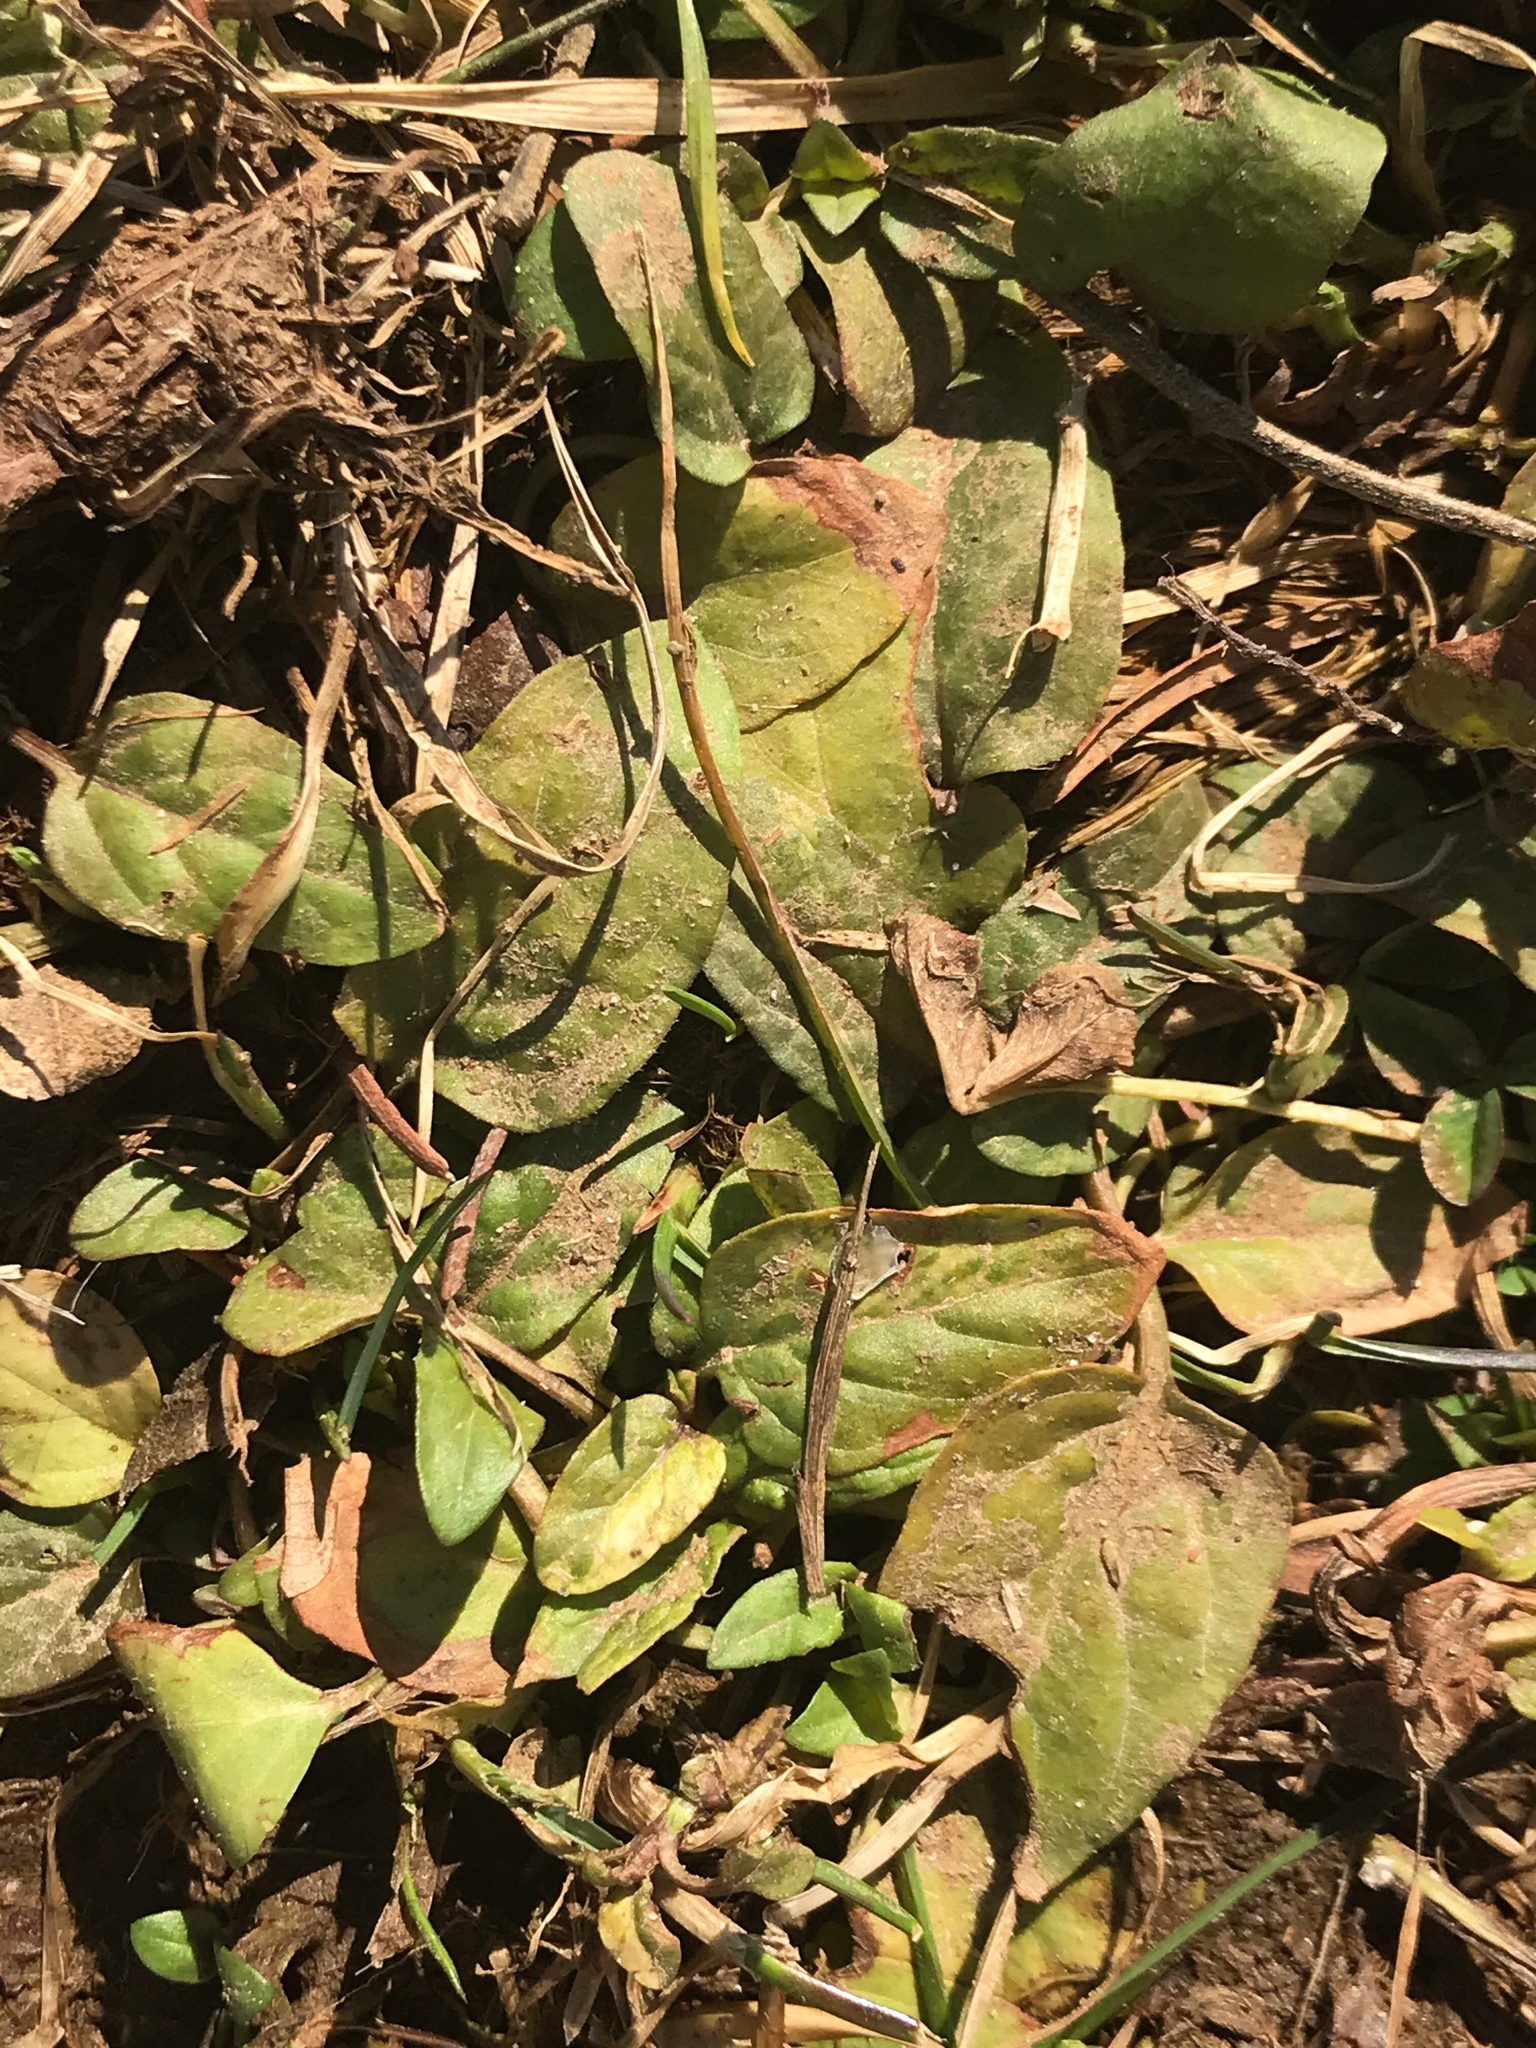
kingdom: Plantae
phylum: Tracheophyta
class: Magnoliopsida
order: Lamiales
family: Lamiaceae
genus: Prunella
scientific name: Prunella vulgaris
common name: Heal-all
